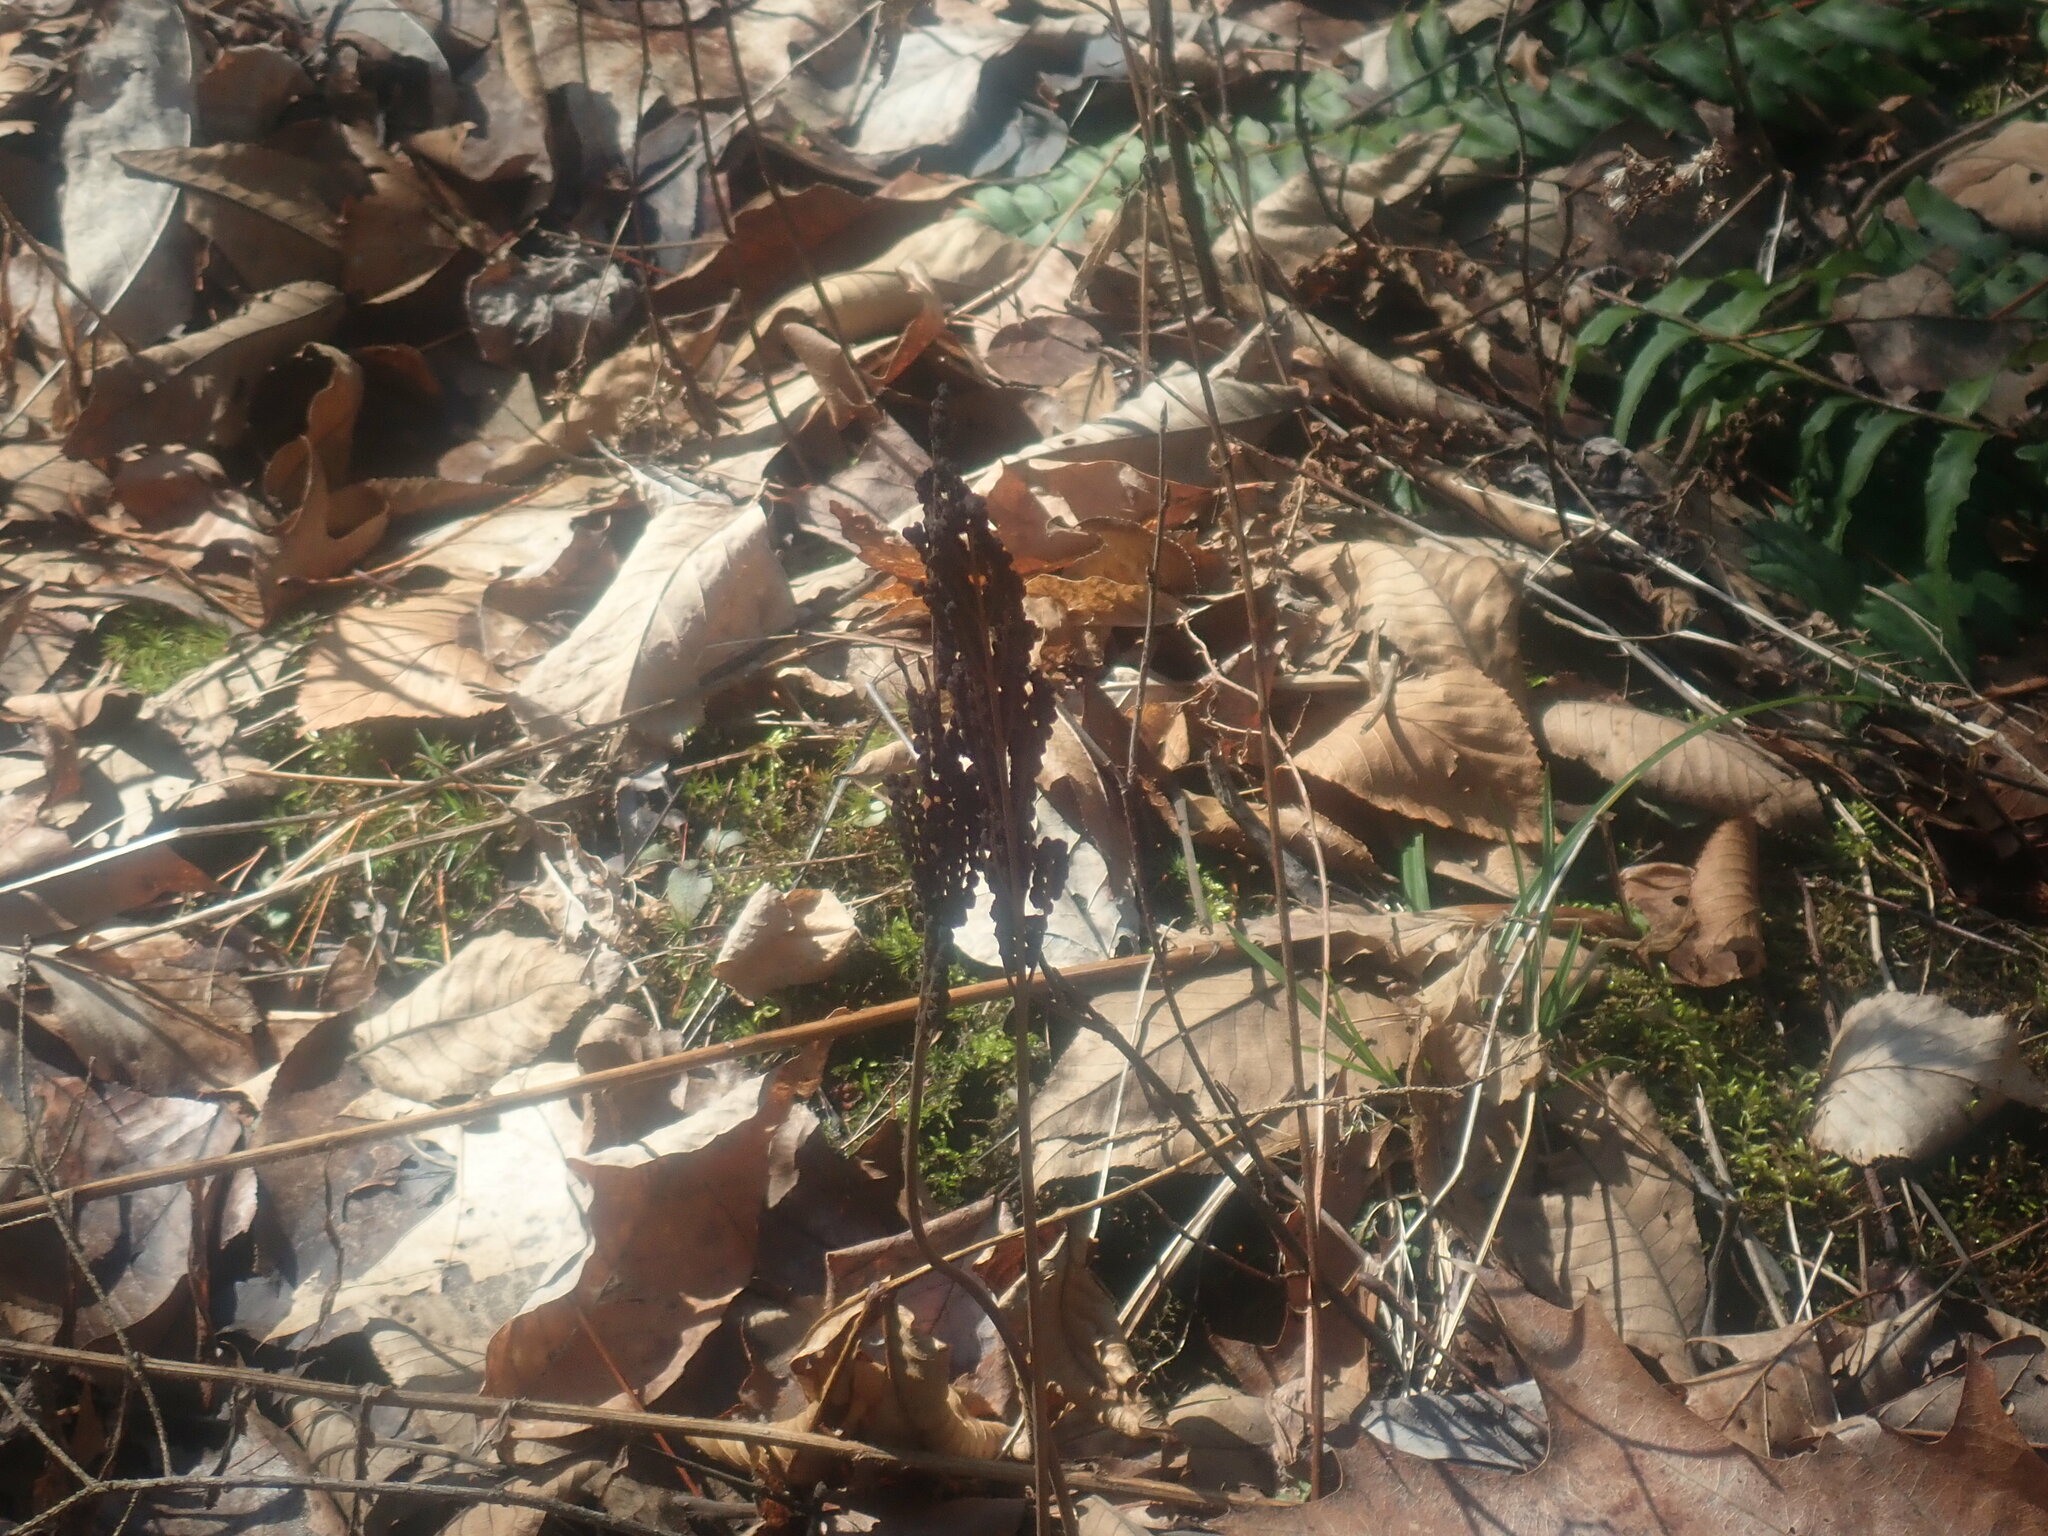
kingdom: Plantae
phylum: Tracheophyta
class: Polypodiopsida
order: Polypodiales
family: Onocleaceae
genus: Onoclea
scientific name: Onoclea sensibilis
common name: Sensitive fern
